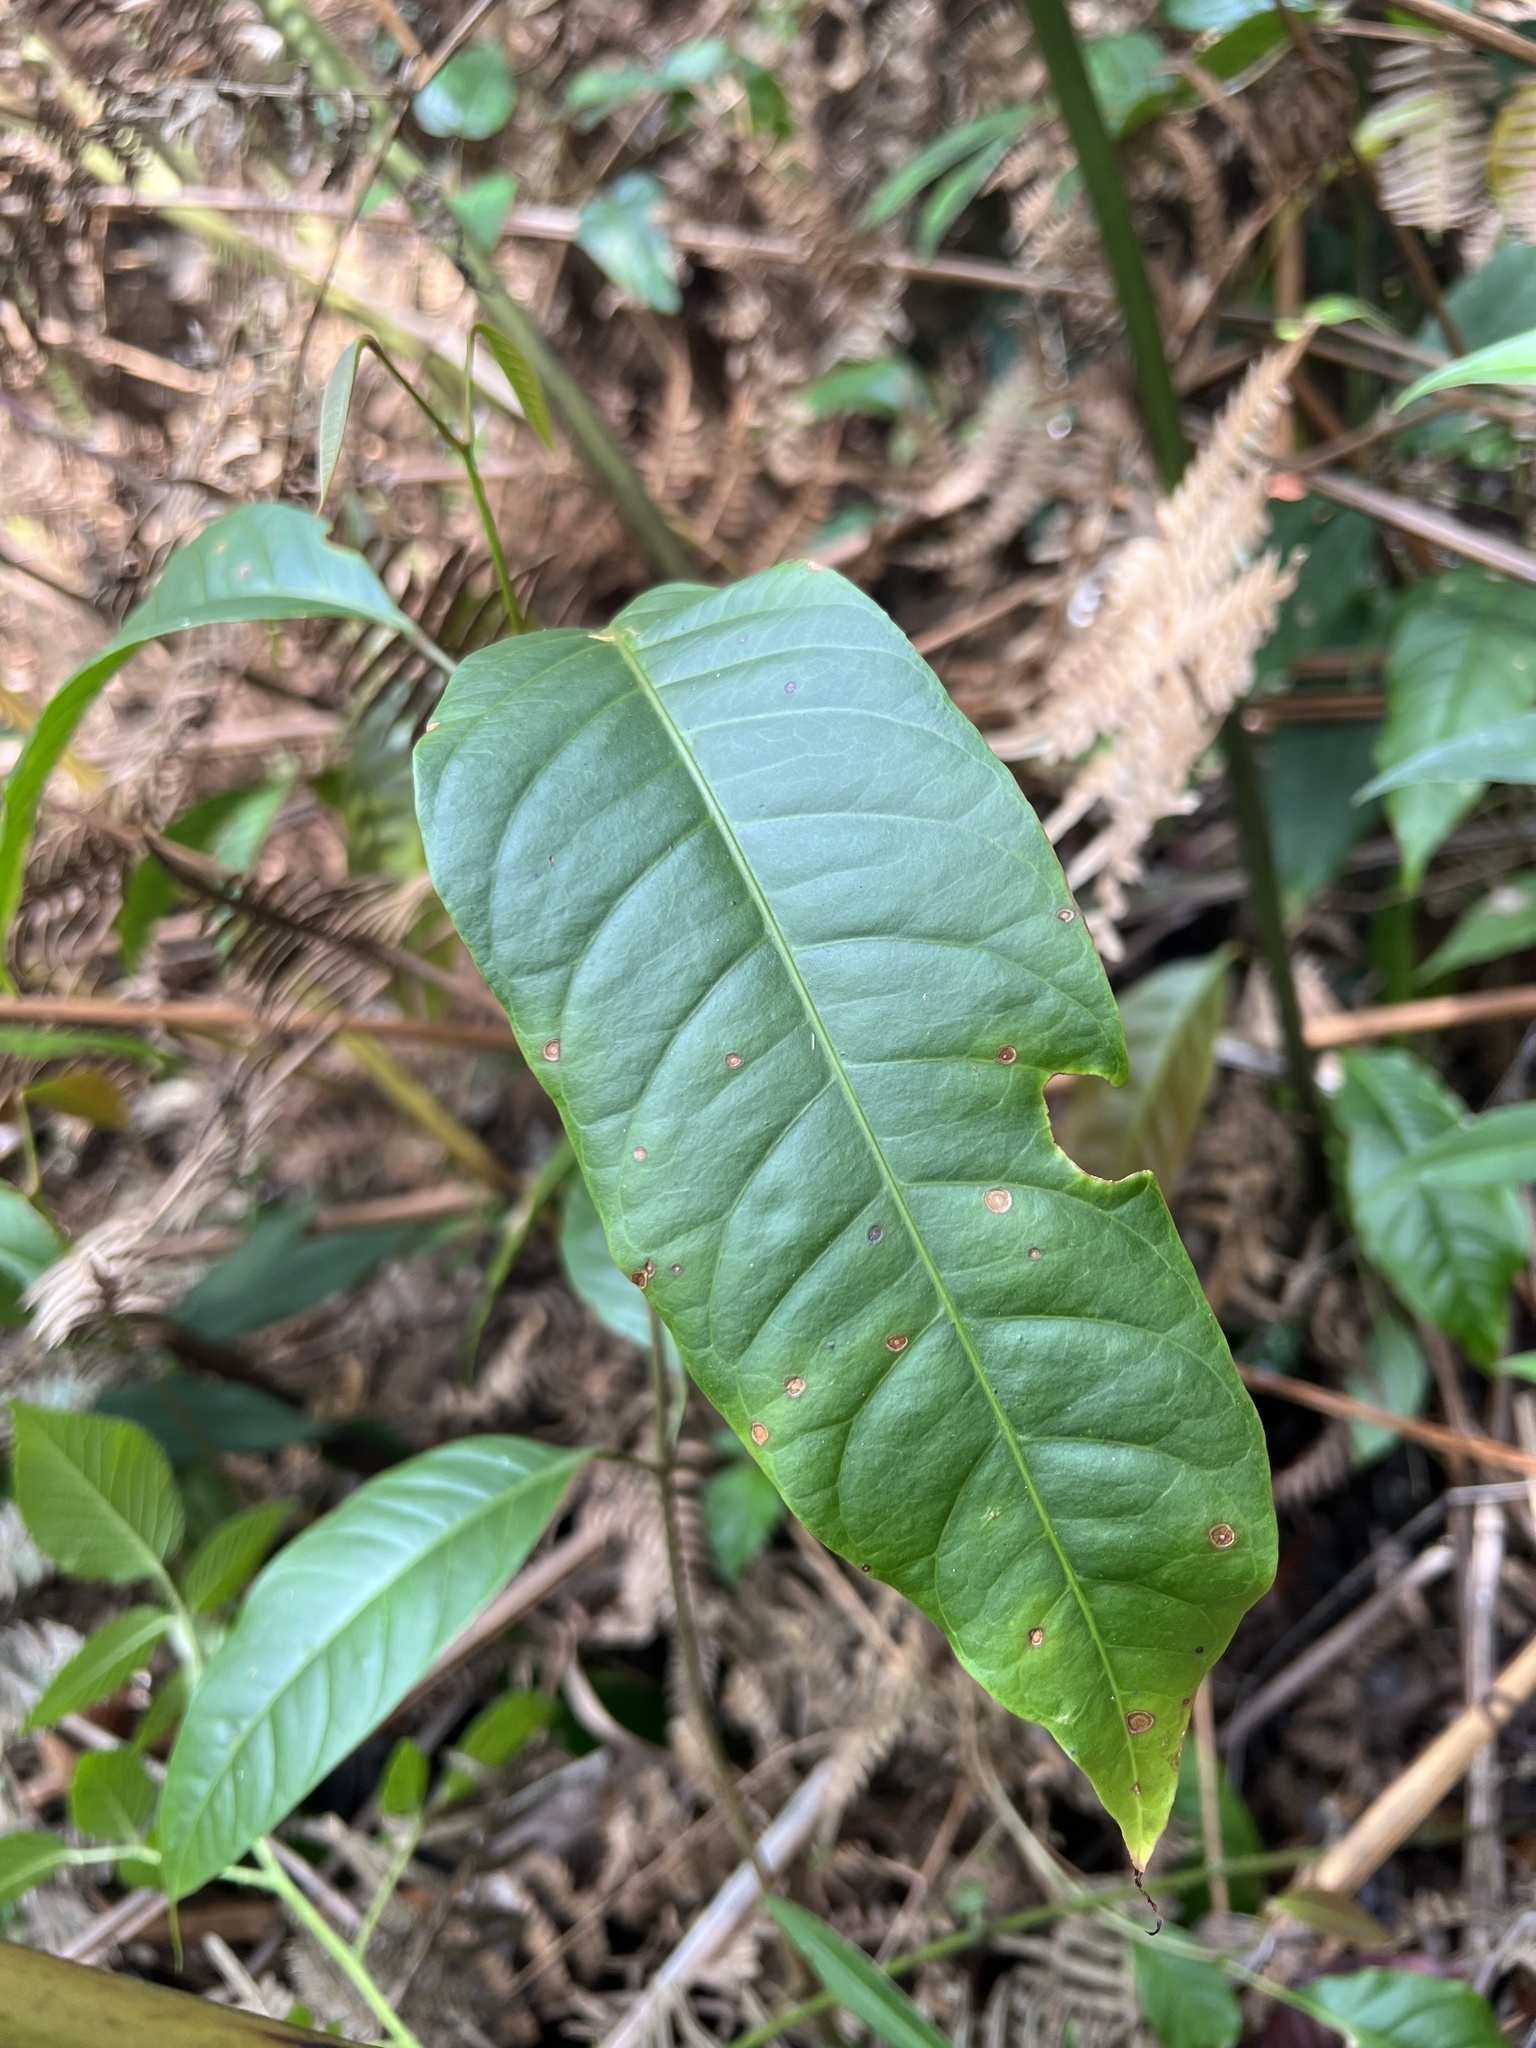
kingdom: Plantae
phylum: Tracheophyta
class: Magnoliopsida
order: Sapindales
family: Sapindaceae
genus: Billia
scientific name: Billia rosea
